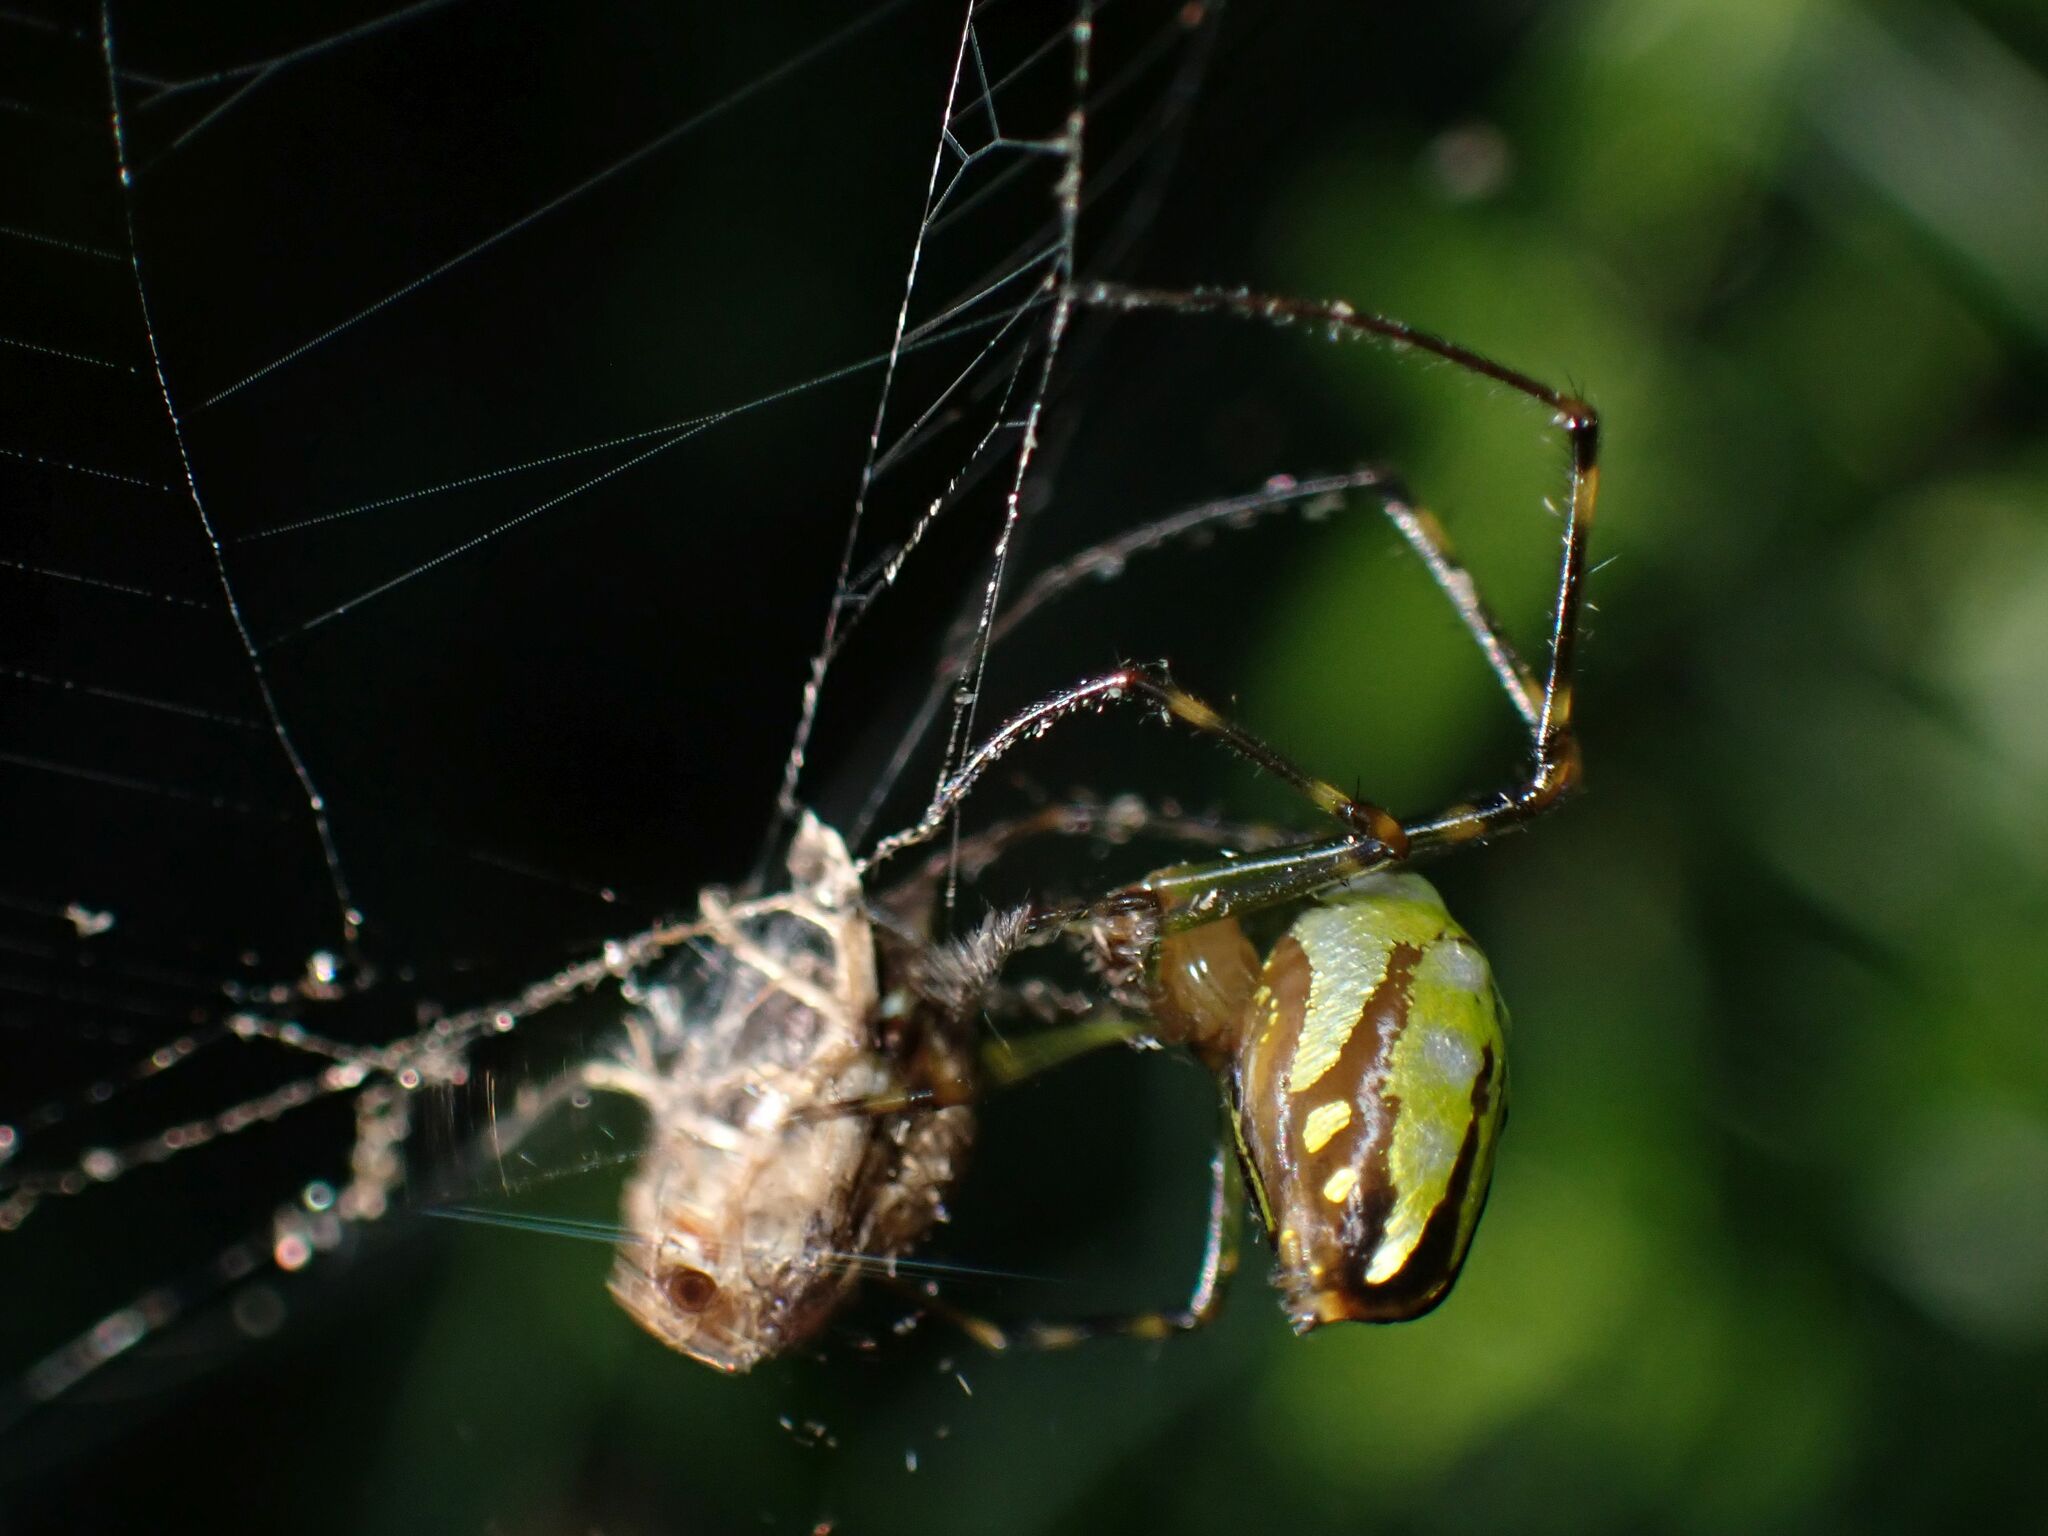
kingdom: Animalia
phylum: Arthropoda
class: Arachnida
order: Araneae
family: Tetragnathidae
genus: Leucauge
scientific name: Leucauge granulata
